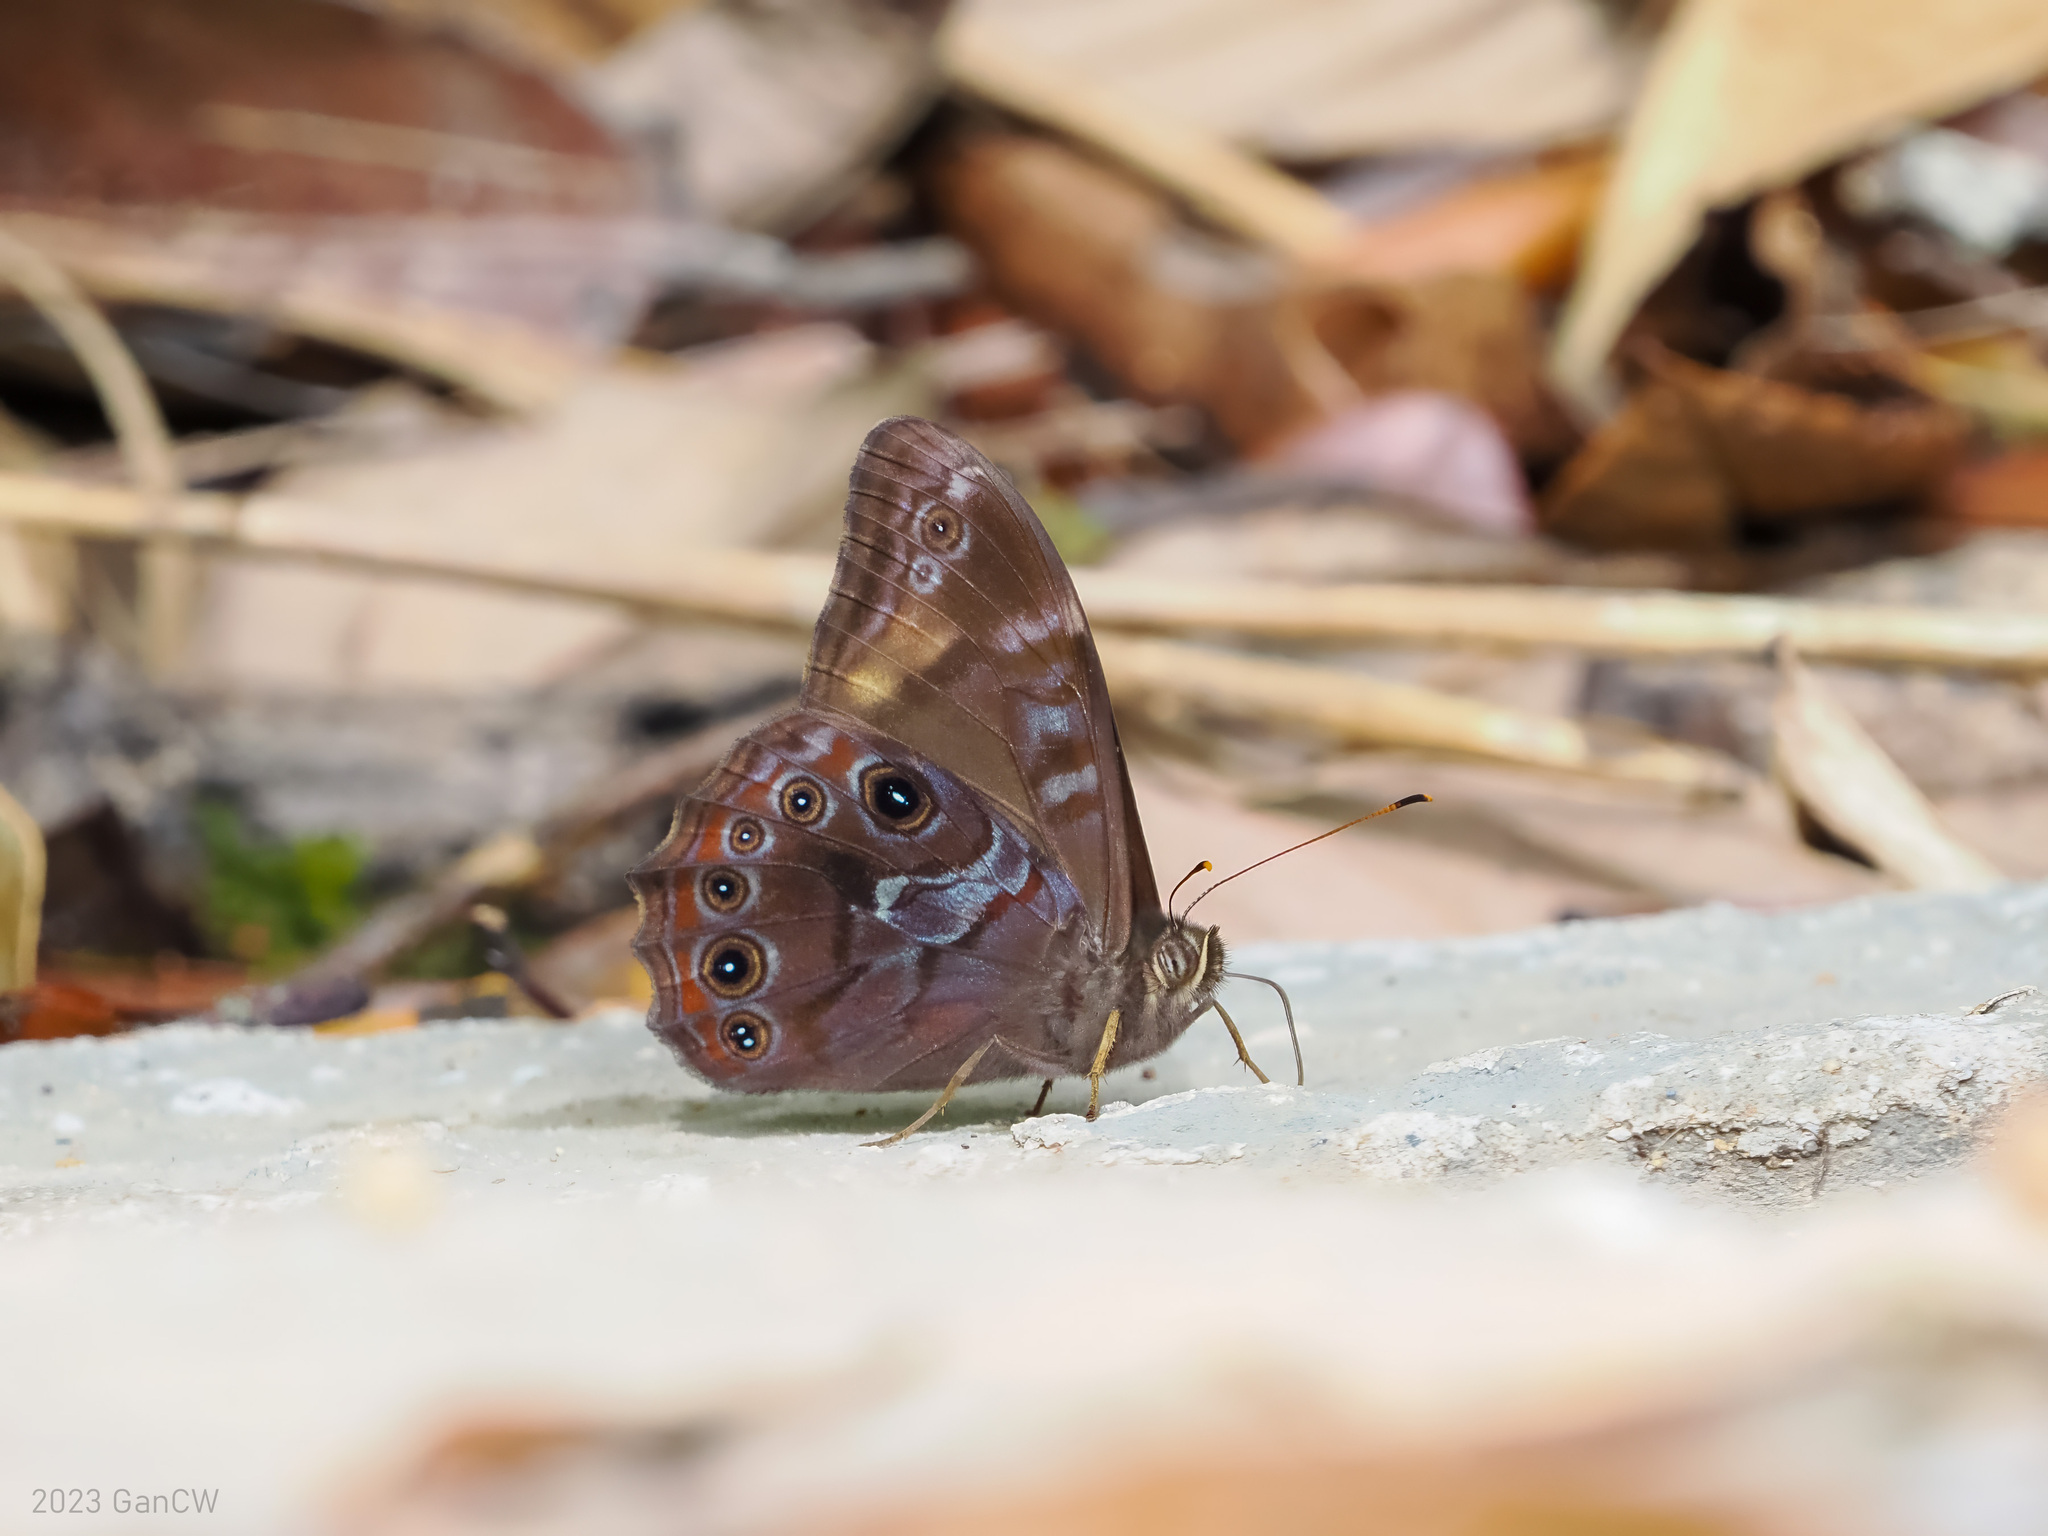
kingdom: Animalia
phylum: Arthropoda
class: Insecta
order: Lepidoptera
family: Nymphalidae
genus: Lethe
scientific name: Lethe perimede
